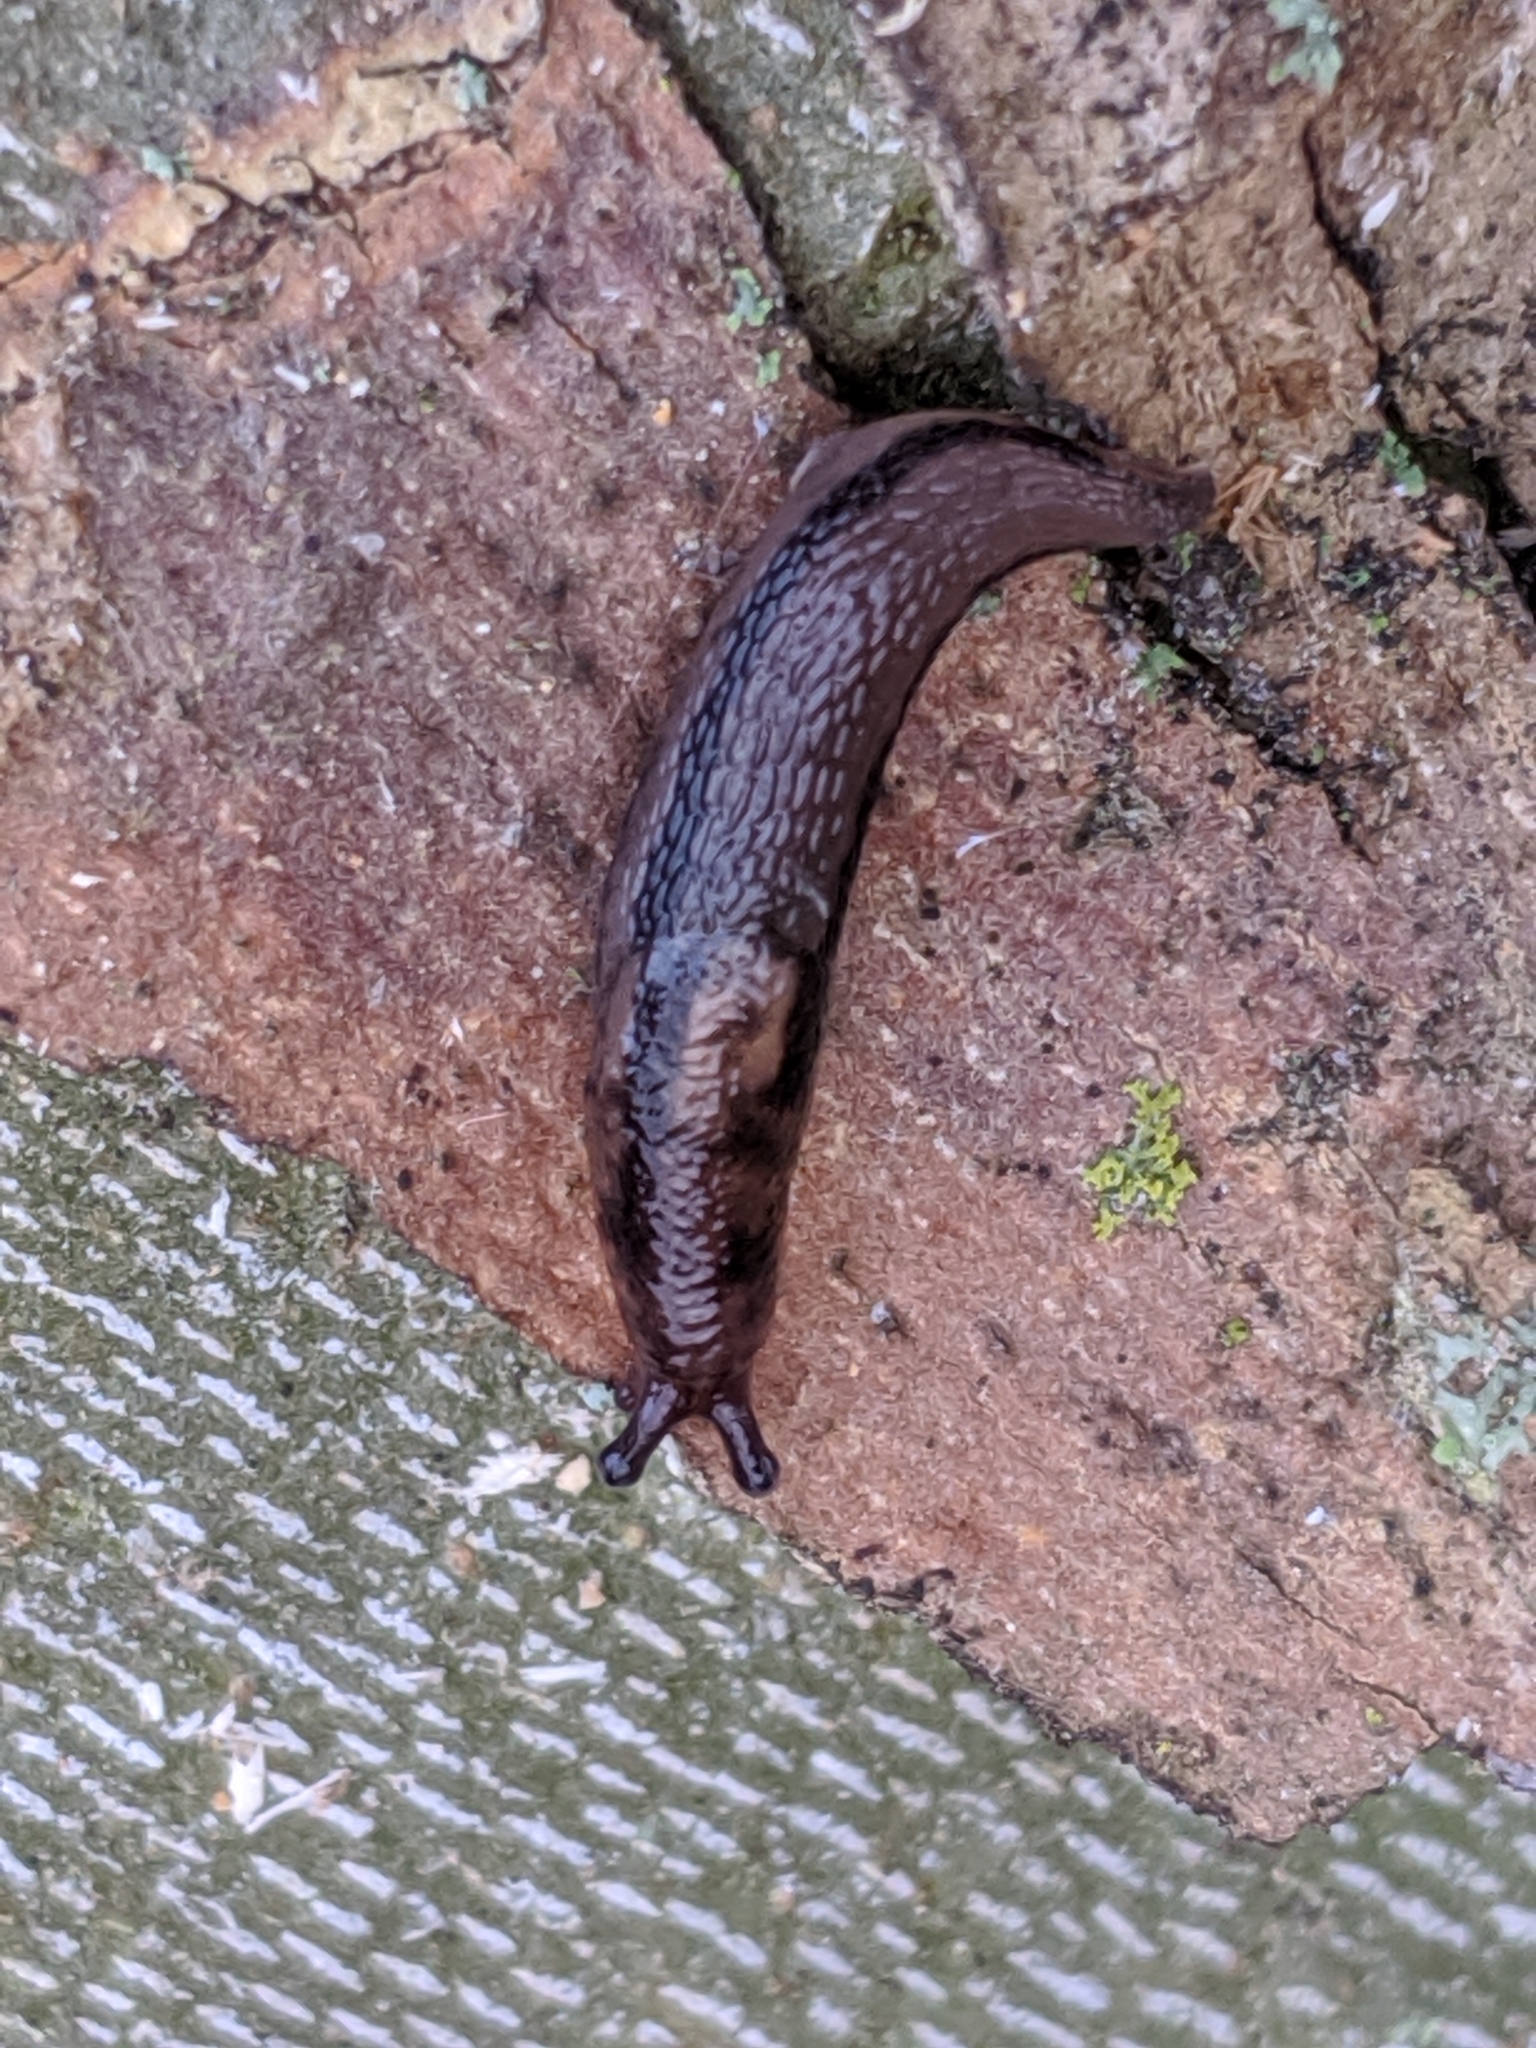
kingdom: Animalia
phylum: Mollusca
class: Gastropoda
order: Stylommatophora
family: Limacidae
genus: Limax
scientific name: Limax maximus
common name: Great grey slug
